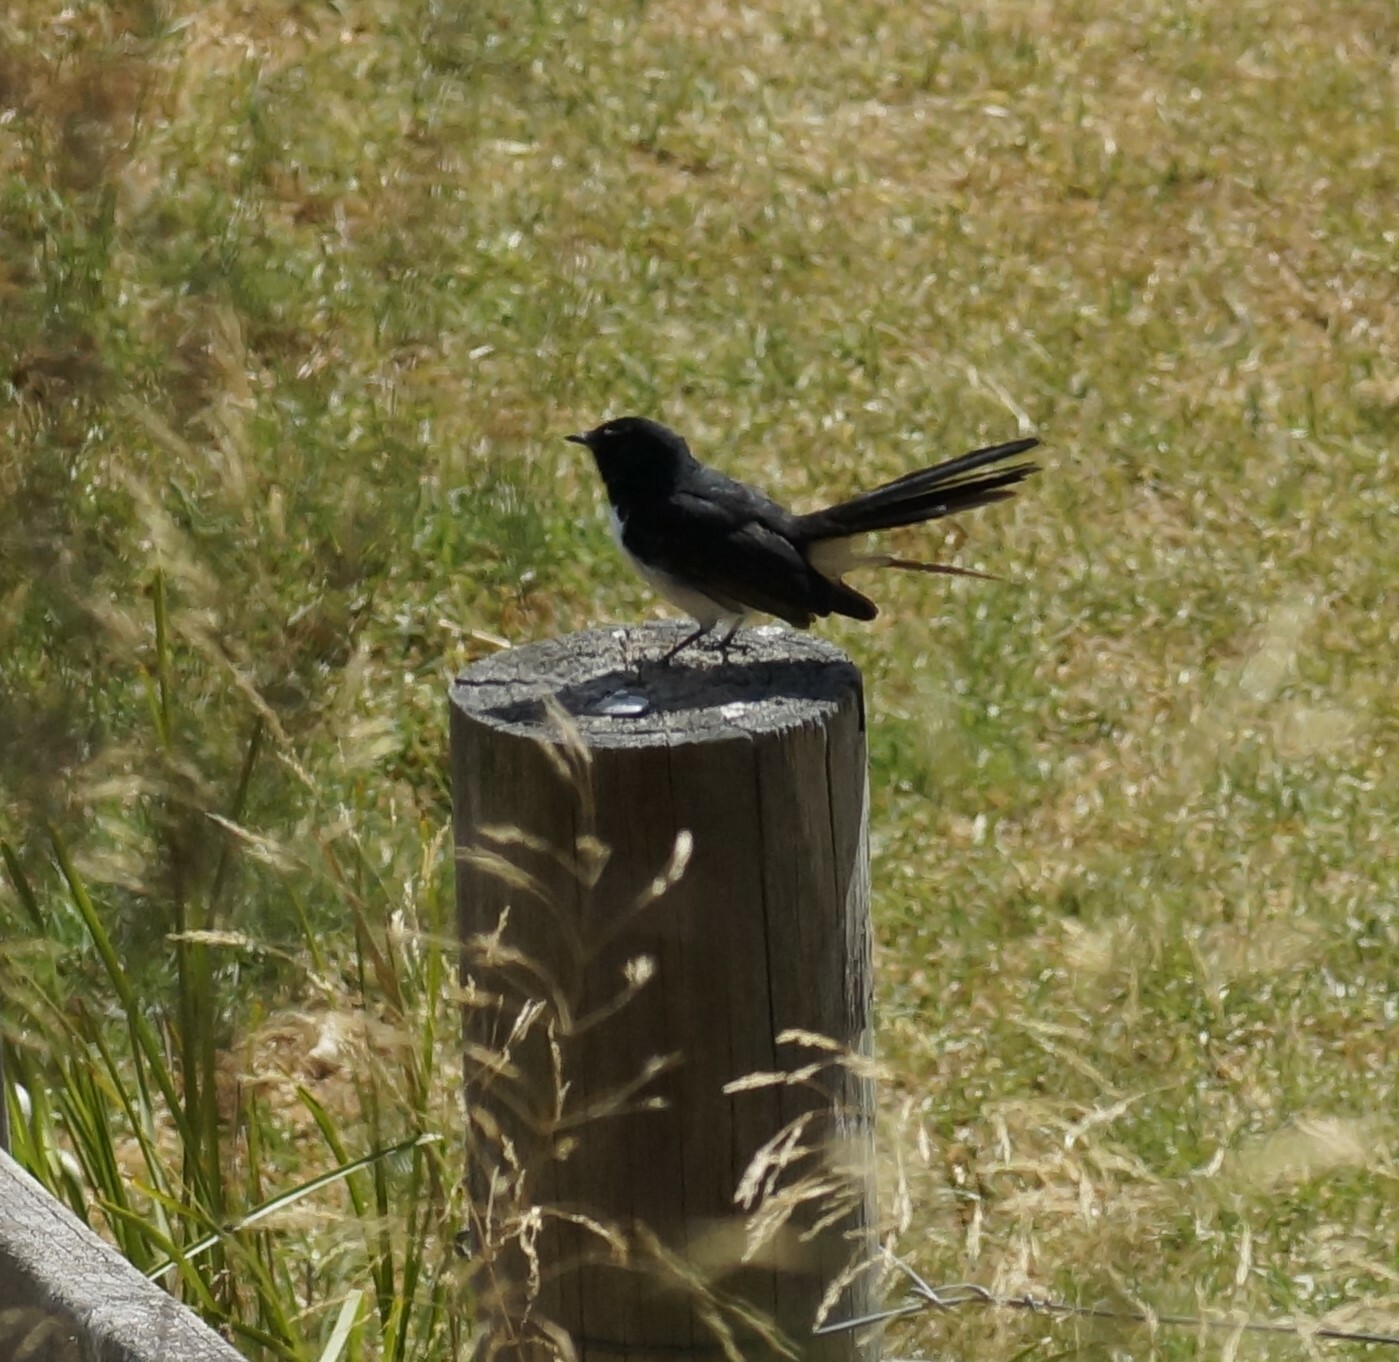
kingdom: Animalia
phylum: Chordata
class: Aves
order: Passeriformes
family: Rhipiduridae
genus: Rhipidura
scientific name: Rhipidura leucophrys
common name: Willie wagtail
